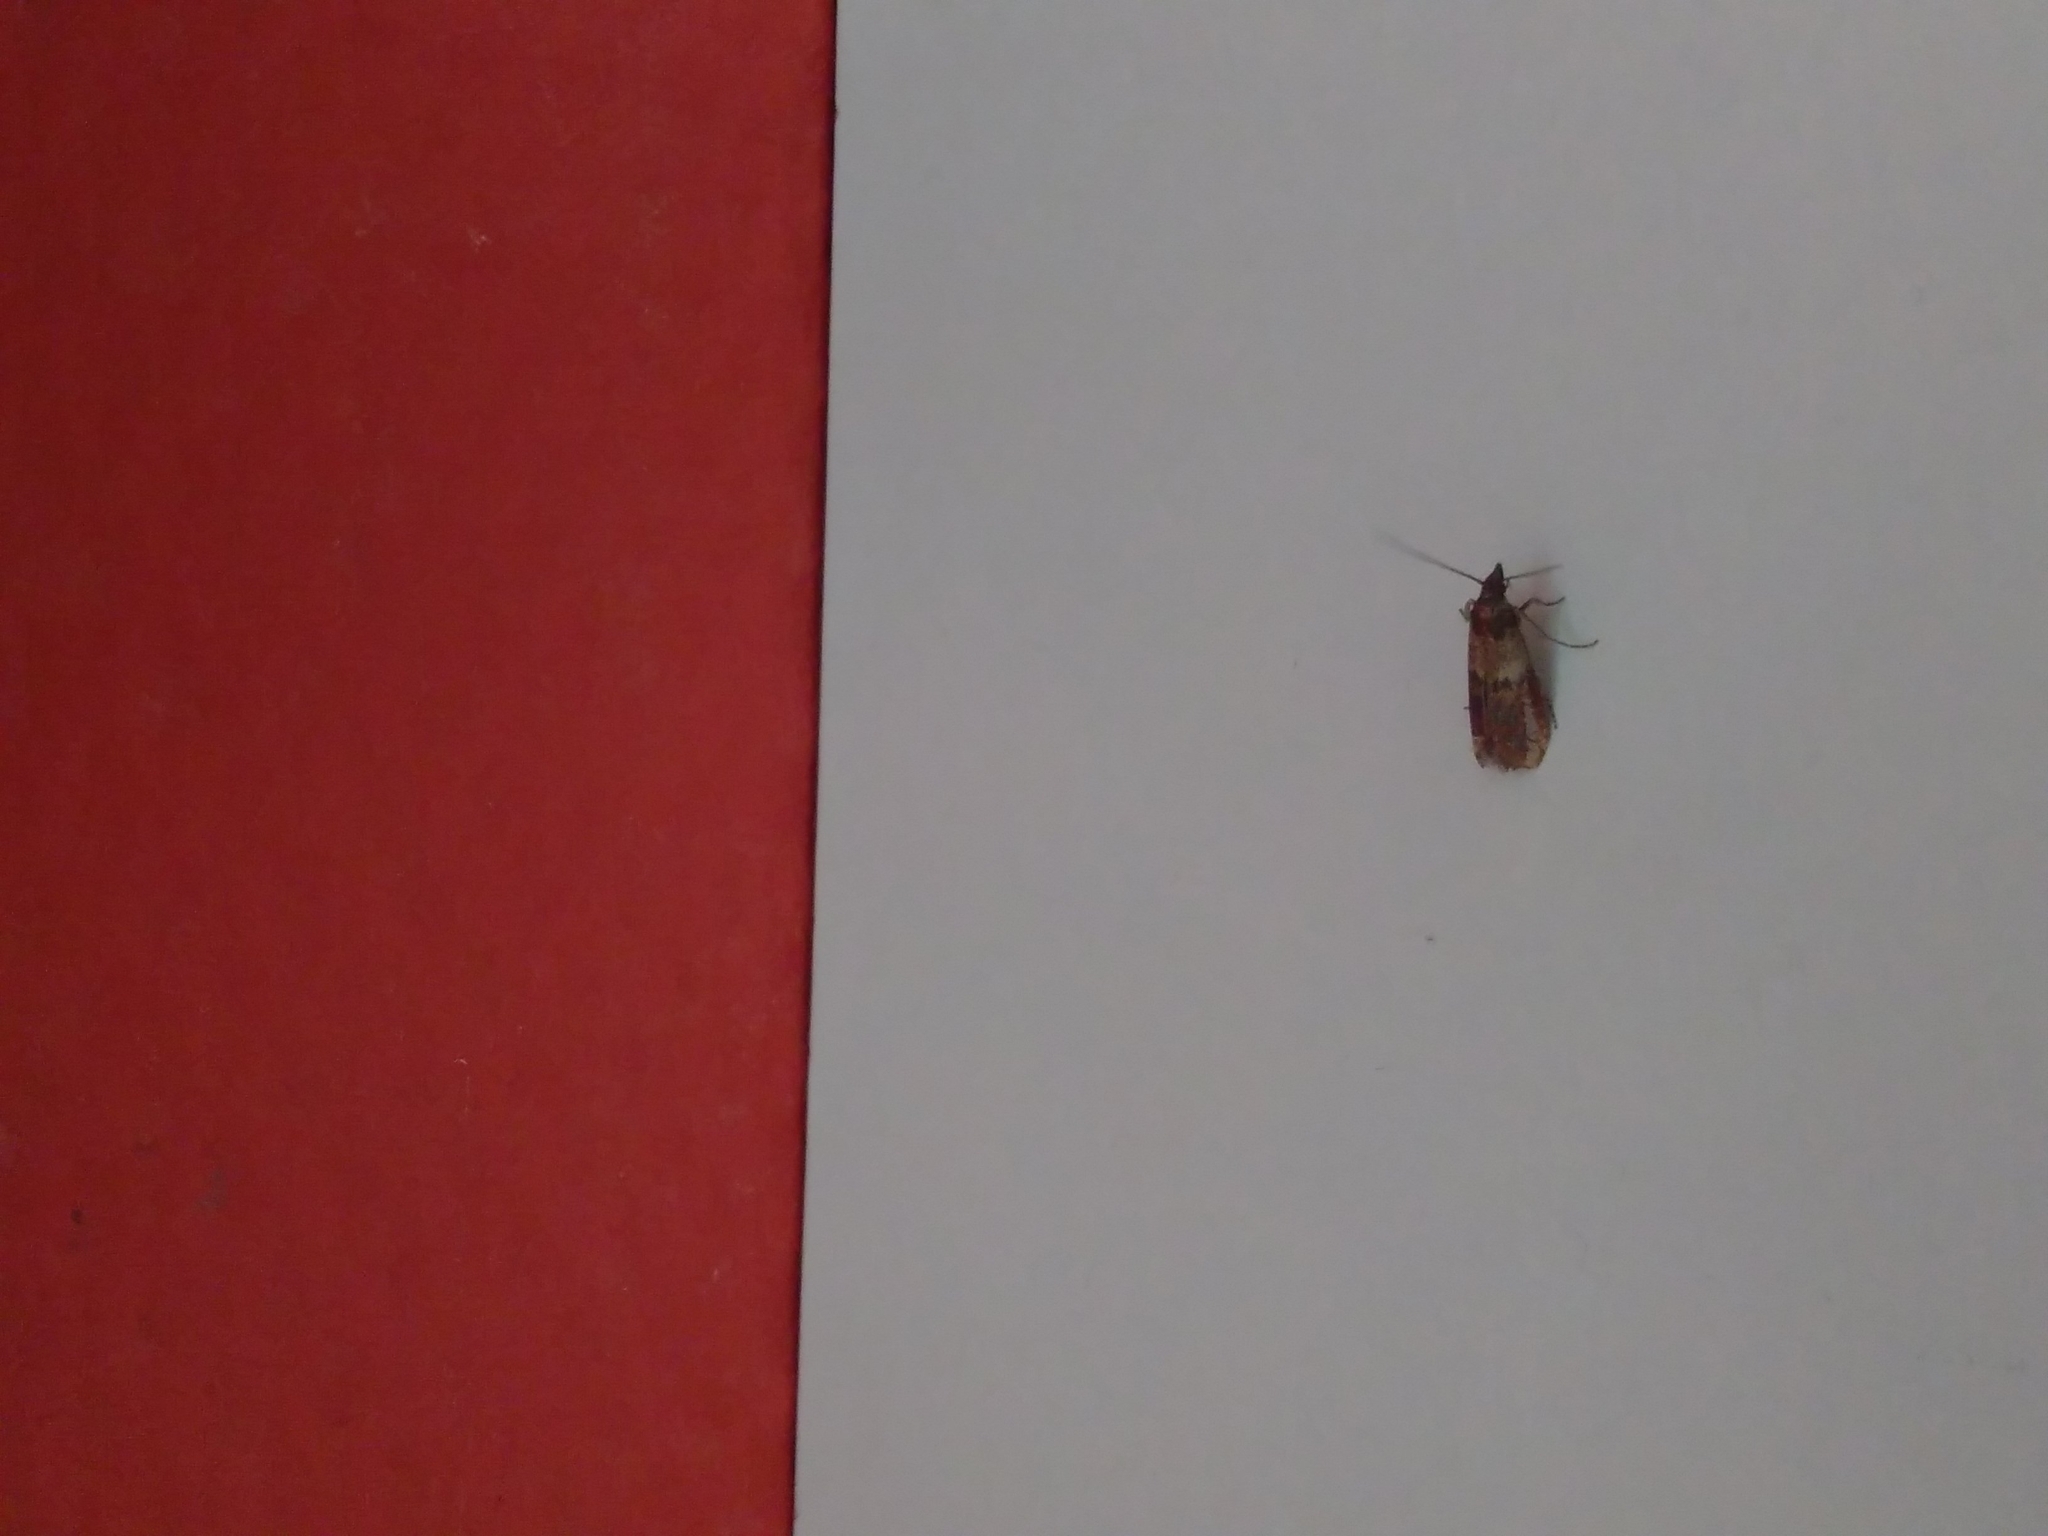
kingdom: Animalia
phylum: Arthropoda
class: Insecta
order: Lepidoptera
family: Pyralidae
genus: Plodia
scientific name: Plodia interpunctella
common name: Indian meal moth
